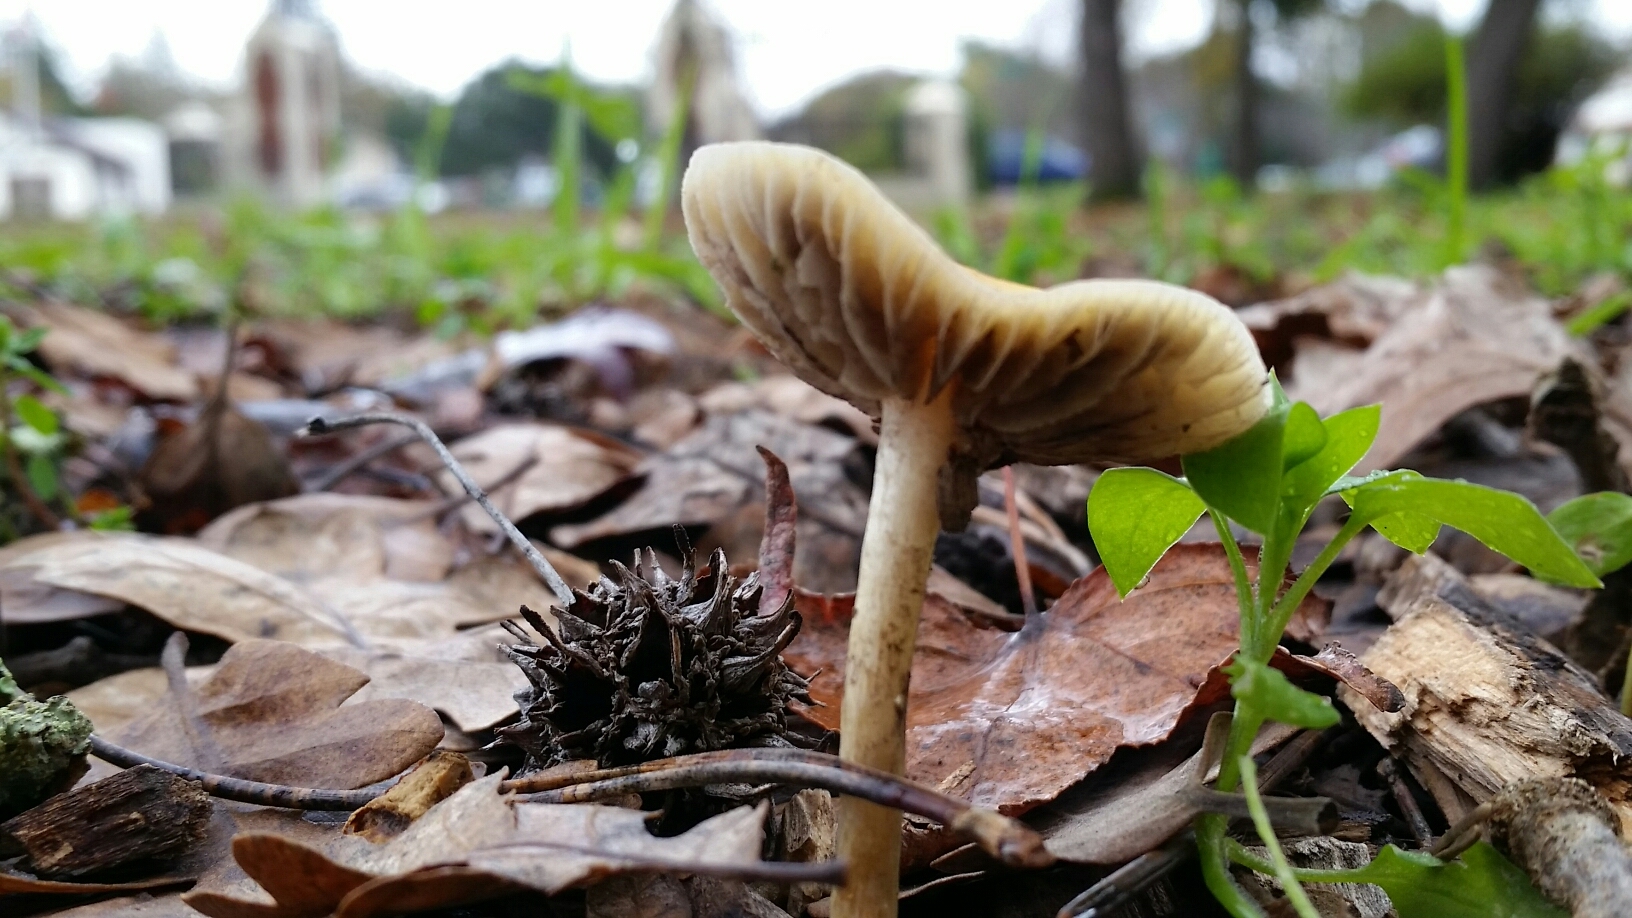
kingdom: Fungi
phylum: Basidiomycota
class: Agaricomycetes
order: Agaricales
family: Strophariaceae
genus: Leratiomyces
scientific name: Leratiomyces percevalii
